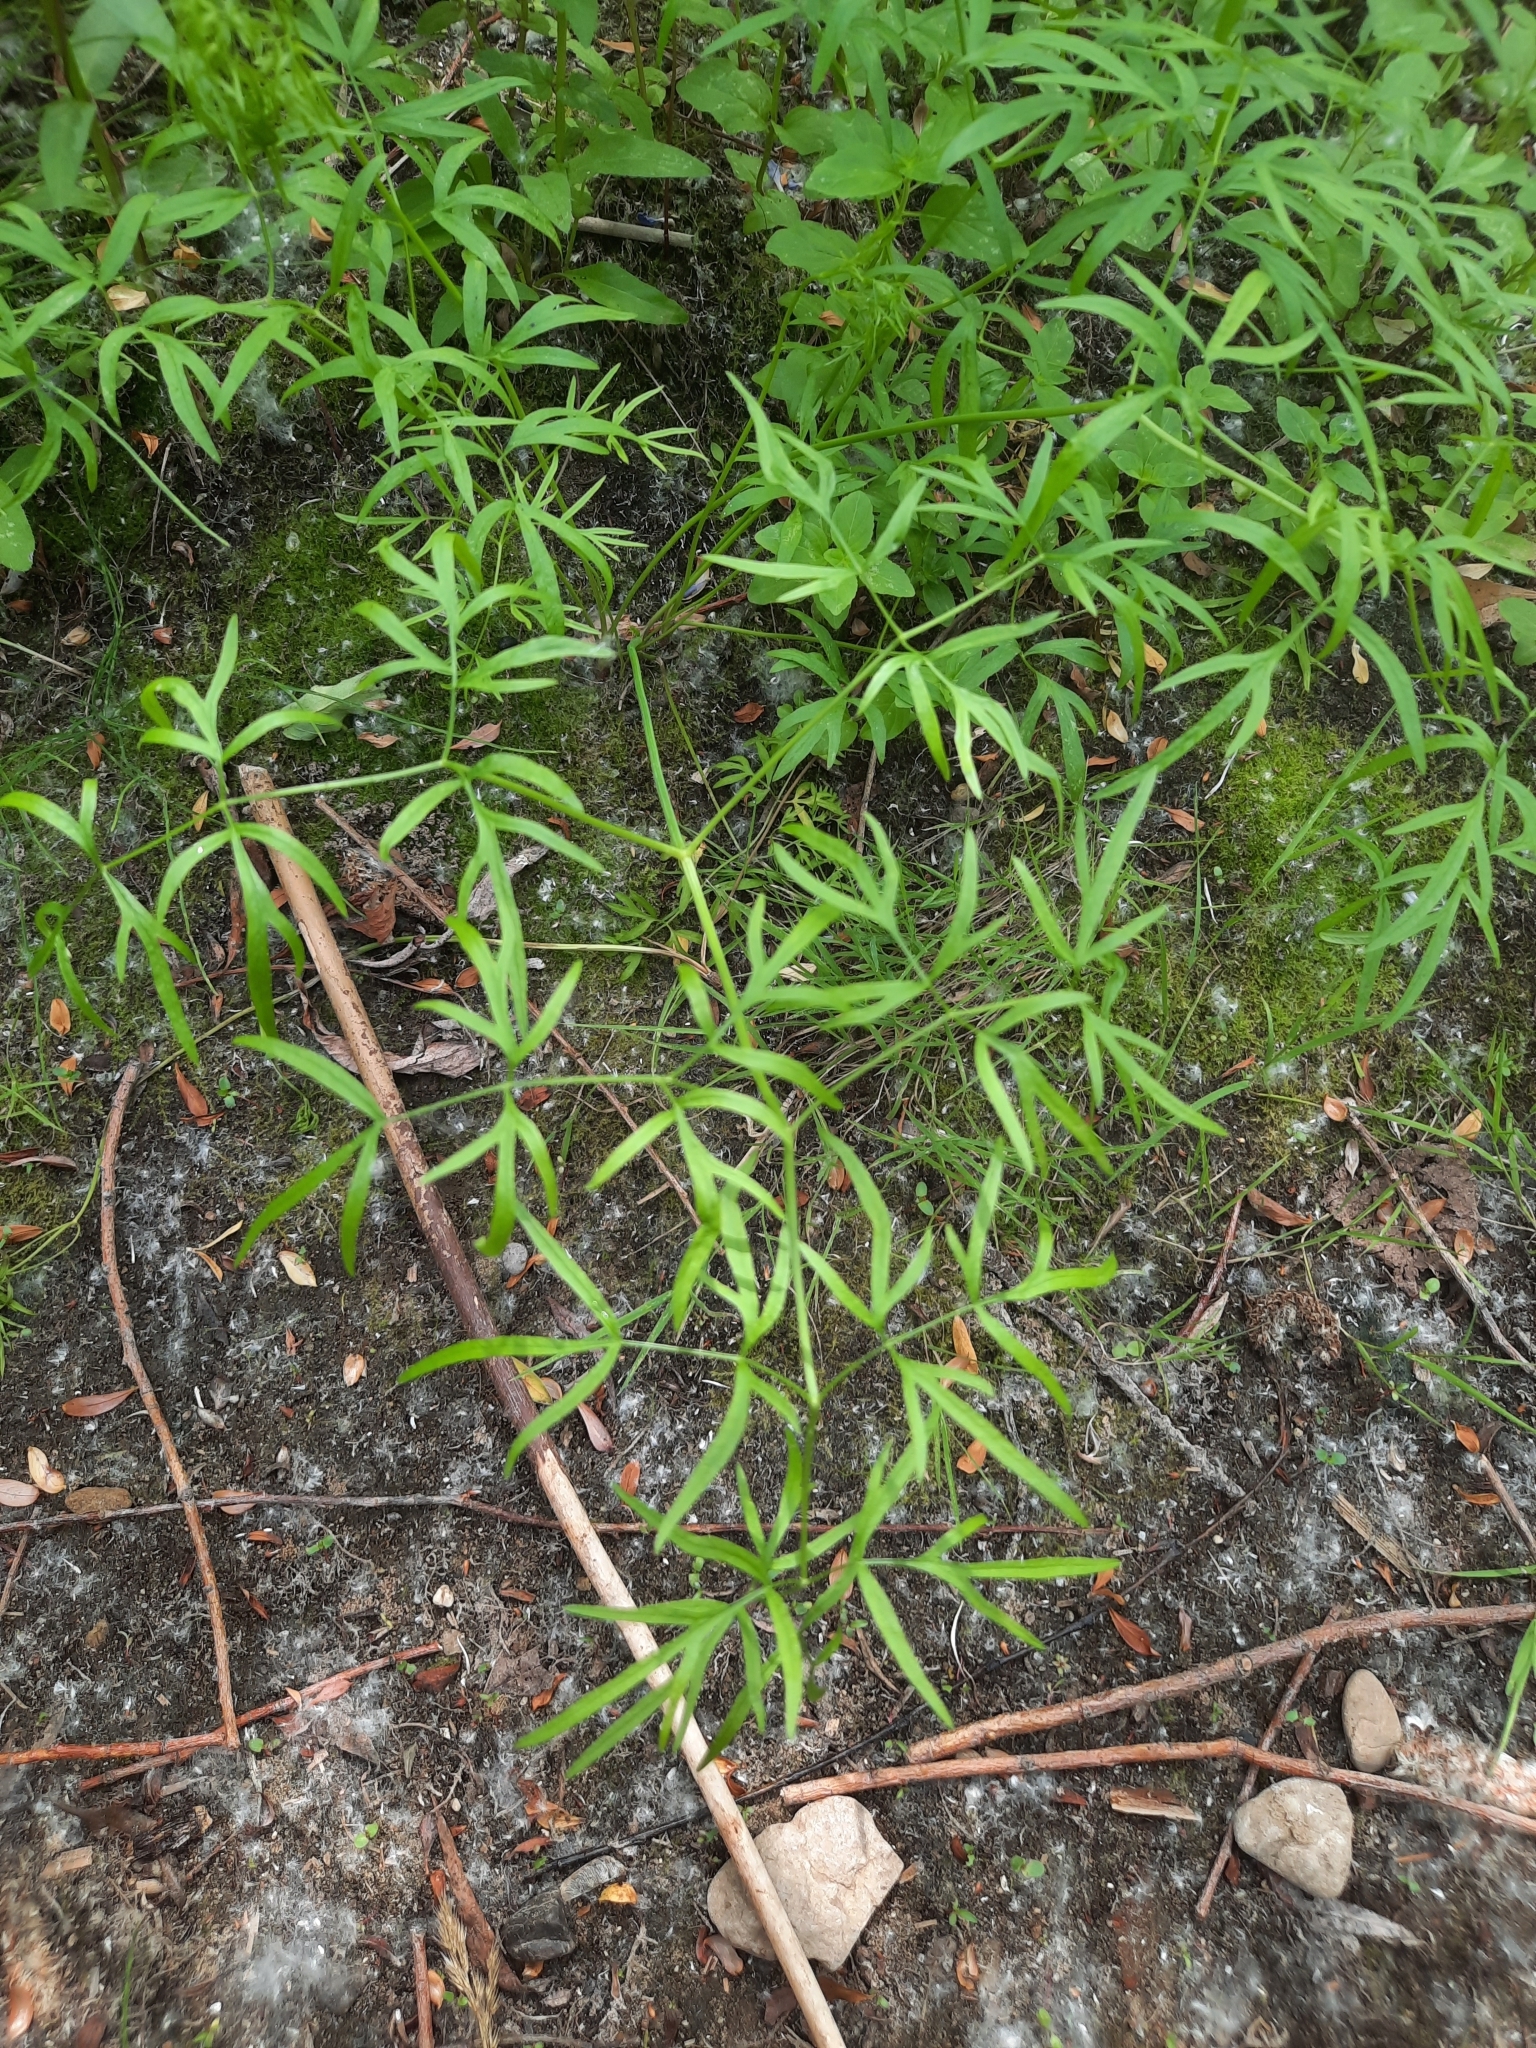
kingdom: Plantae
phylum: Tracheophyta
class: Magnoliopsida
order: Apiales
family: Apiaceae
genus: Cenolophium
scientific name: Cenolophium fischeri
